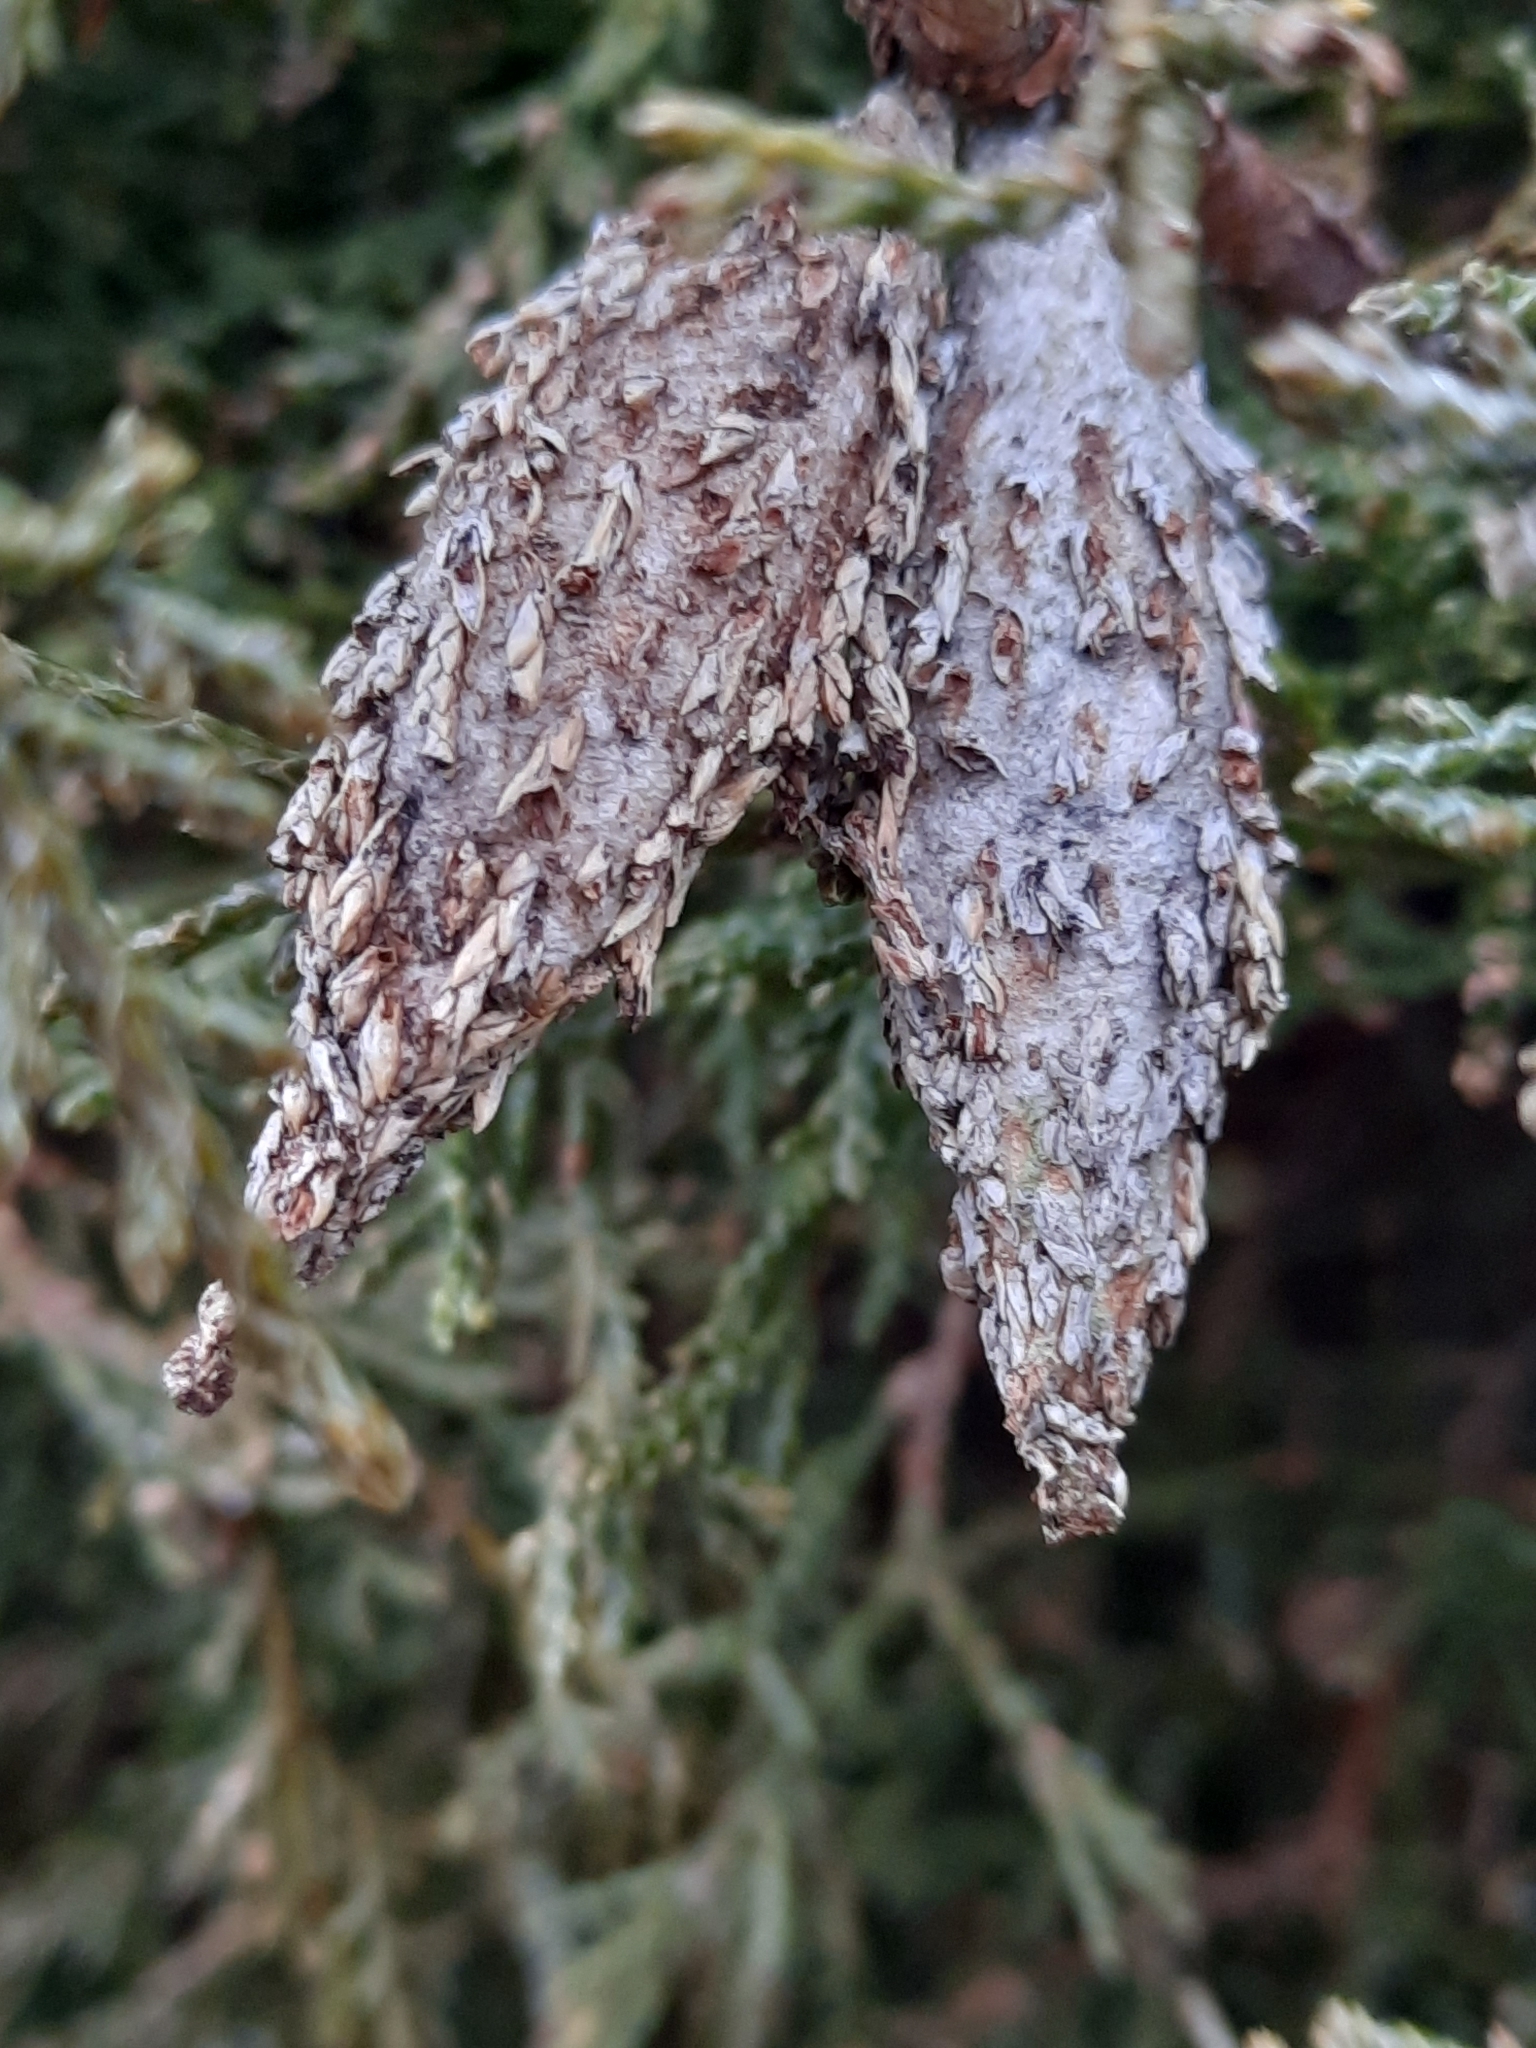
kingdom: Animalia
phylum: Arthropoda
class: Insecta
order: Lepidoptera
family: Psychidae
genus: Thyridopteryx
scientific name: Thyridopteryx ephemeraeformis
